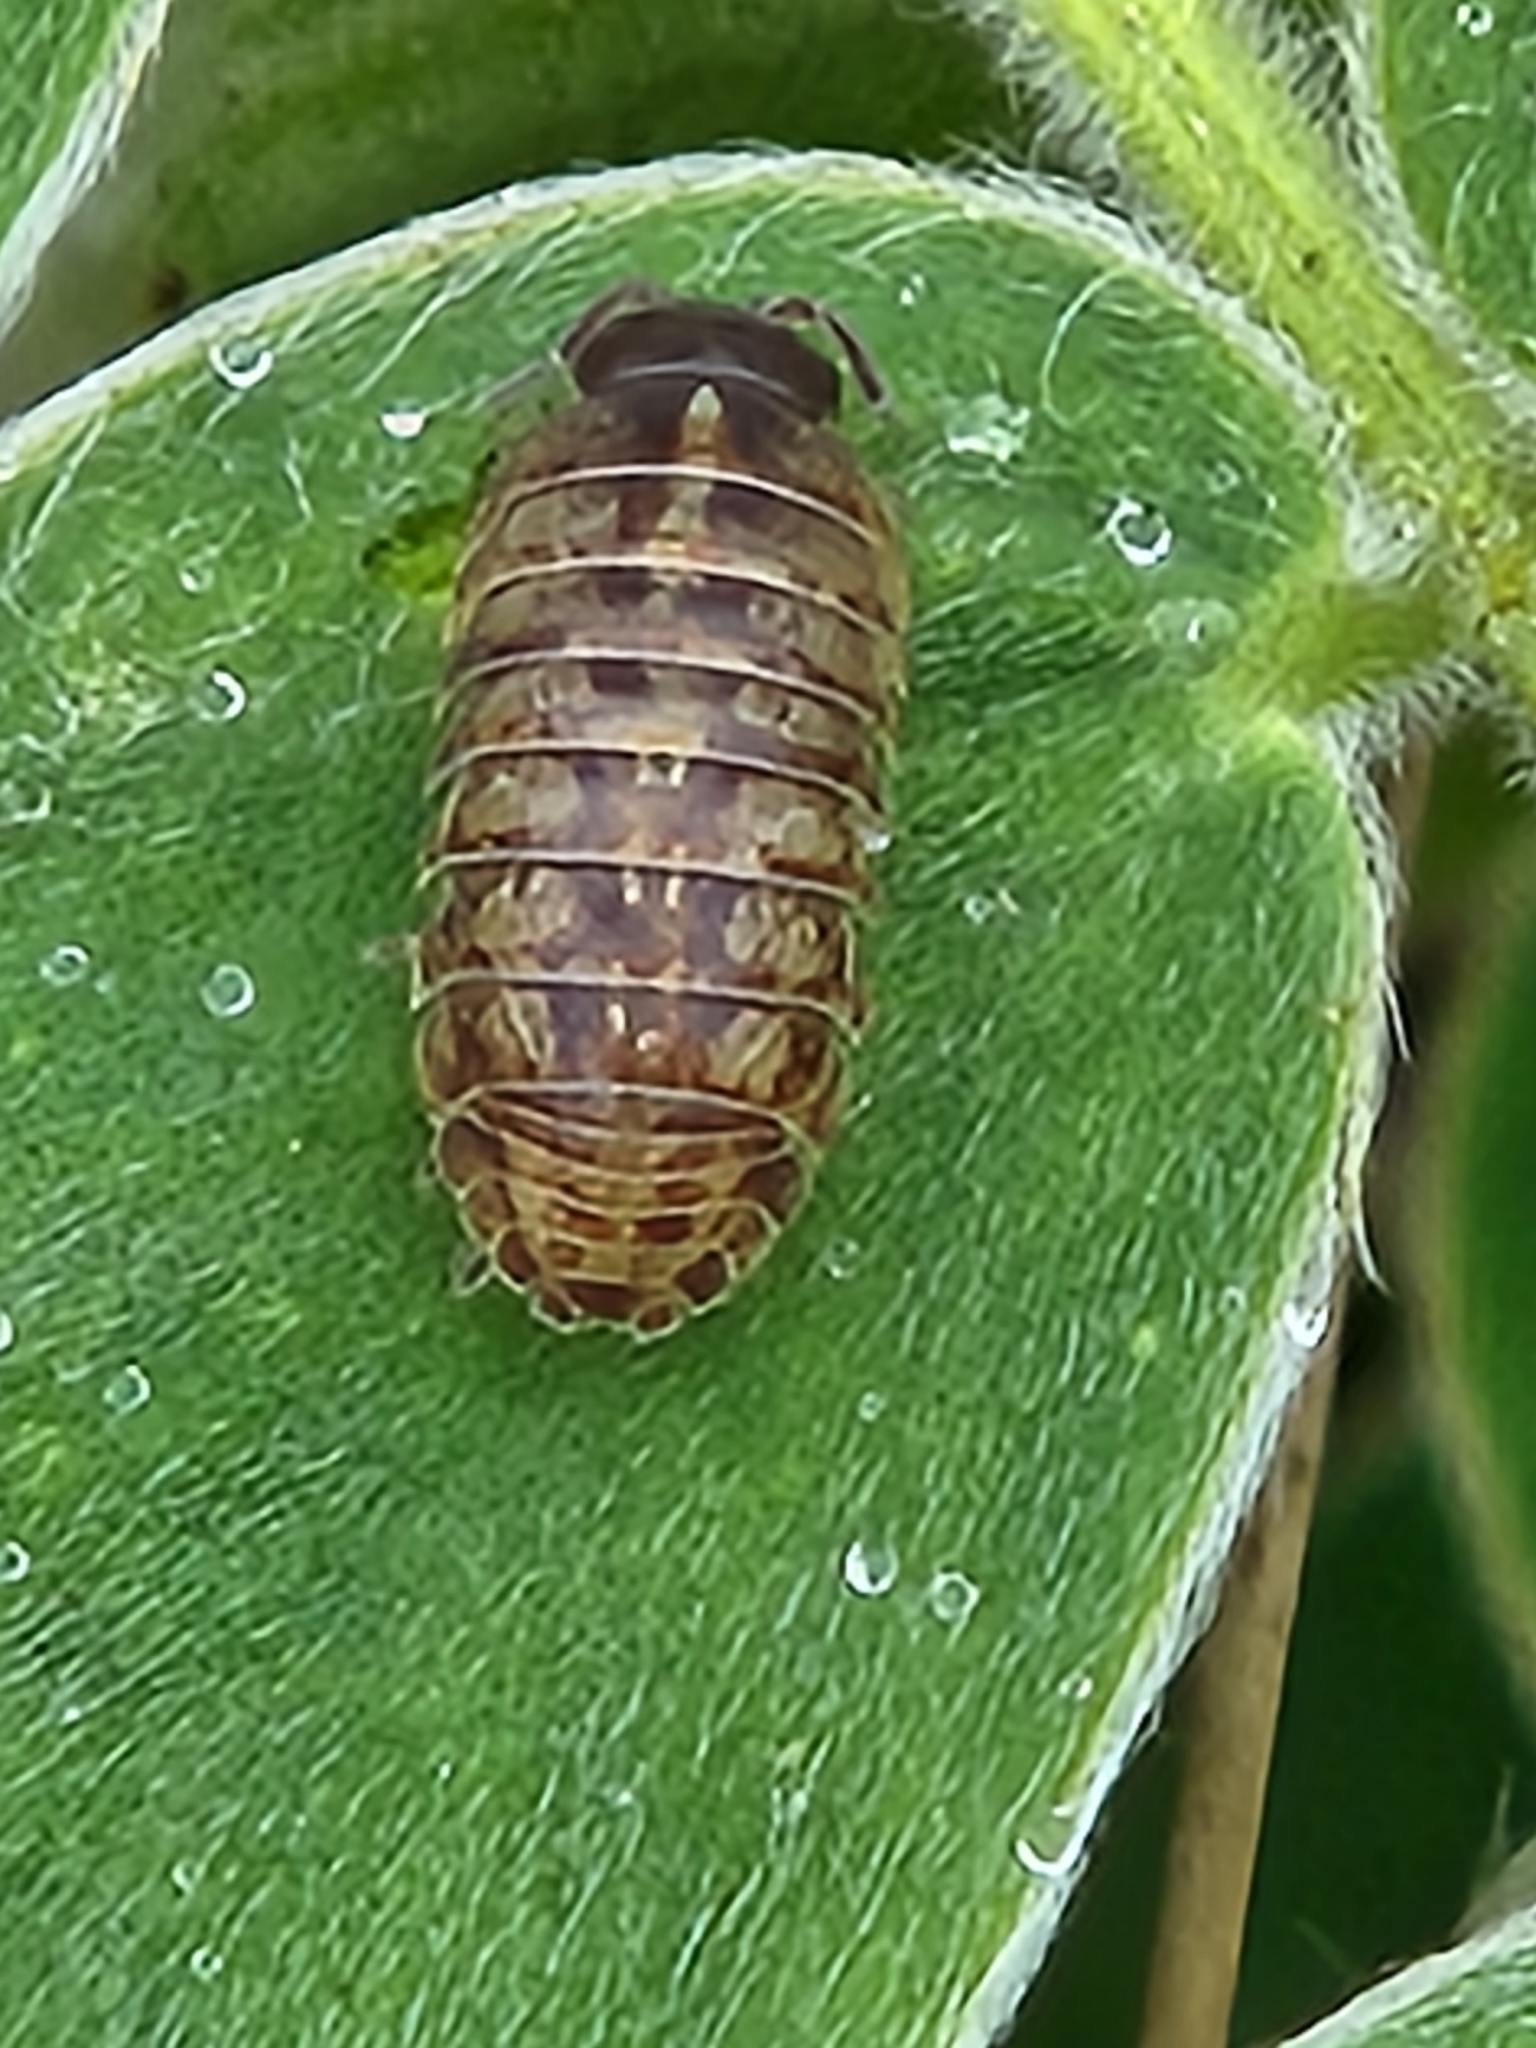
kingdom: Animalia
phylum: Arthropoda
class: Malacostraca
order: Isopoda
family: Armadillidiidae
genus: Armadillidium
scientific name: Armadillidium vulgare
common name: Common pill woodlouse
